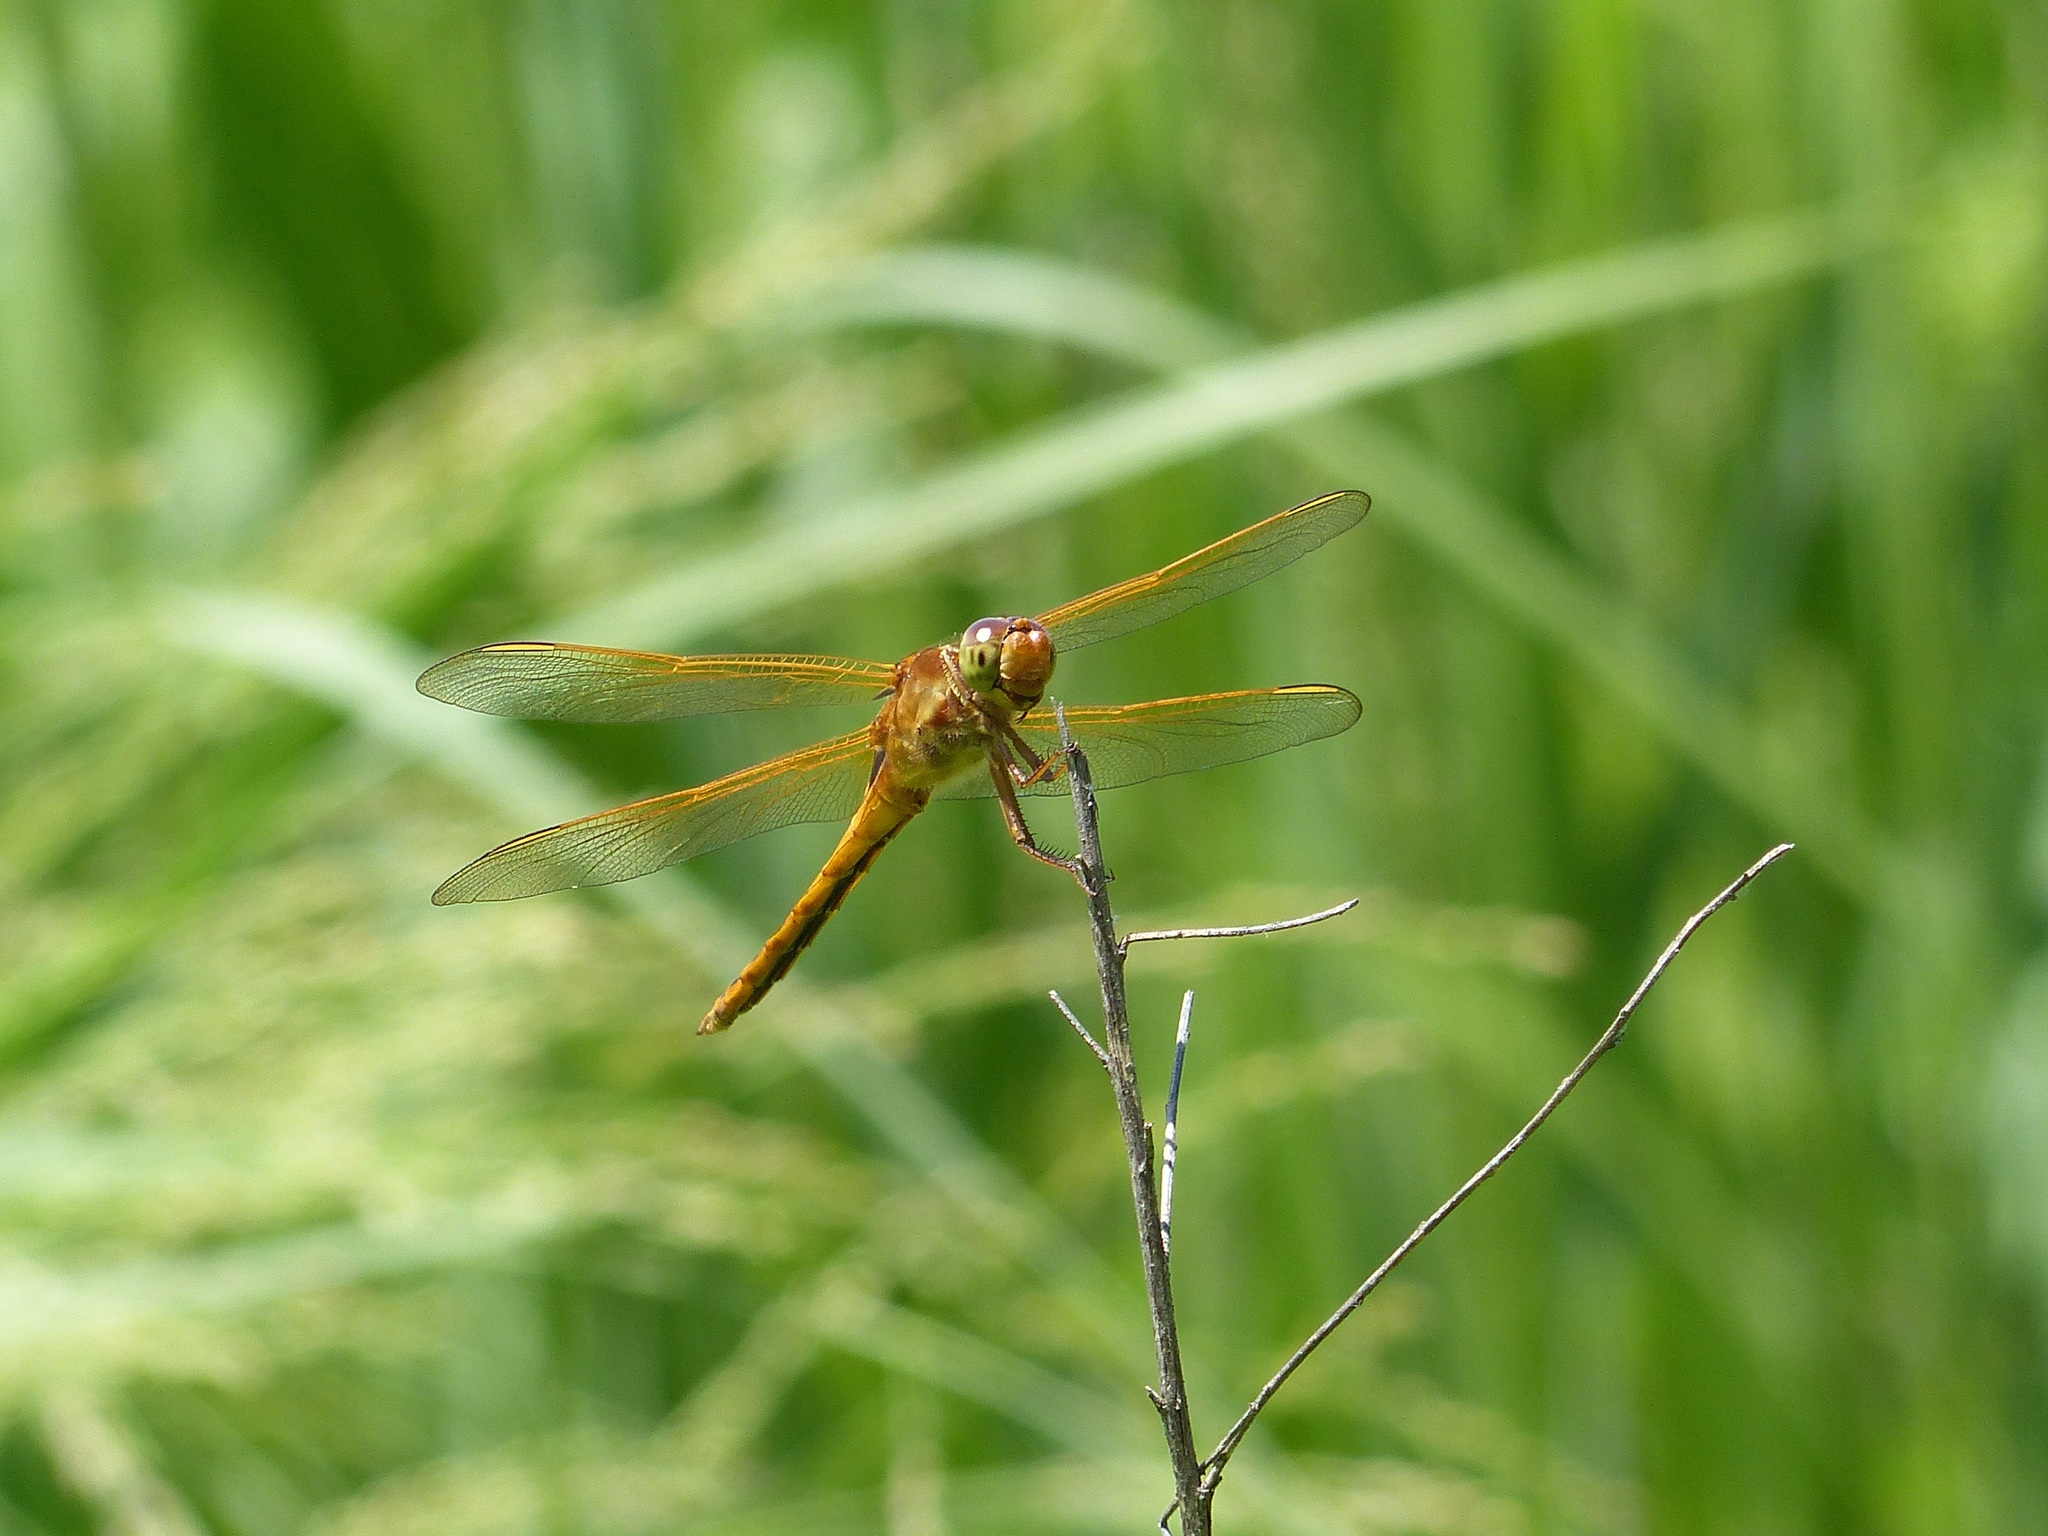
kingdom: Animalia
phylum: Arthropoda
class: Insecta
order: Odonata
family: Libellulidae
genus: Libellula
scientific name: Libellula needhami
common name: Needham's skimmer
